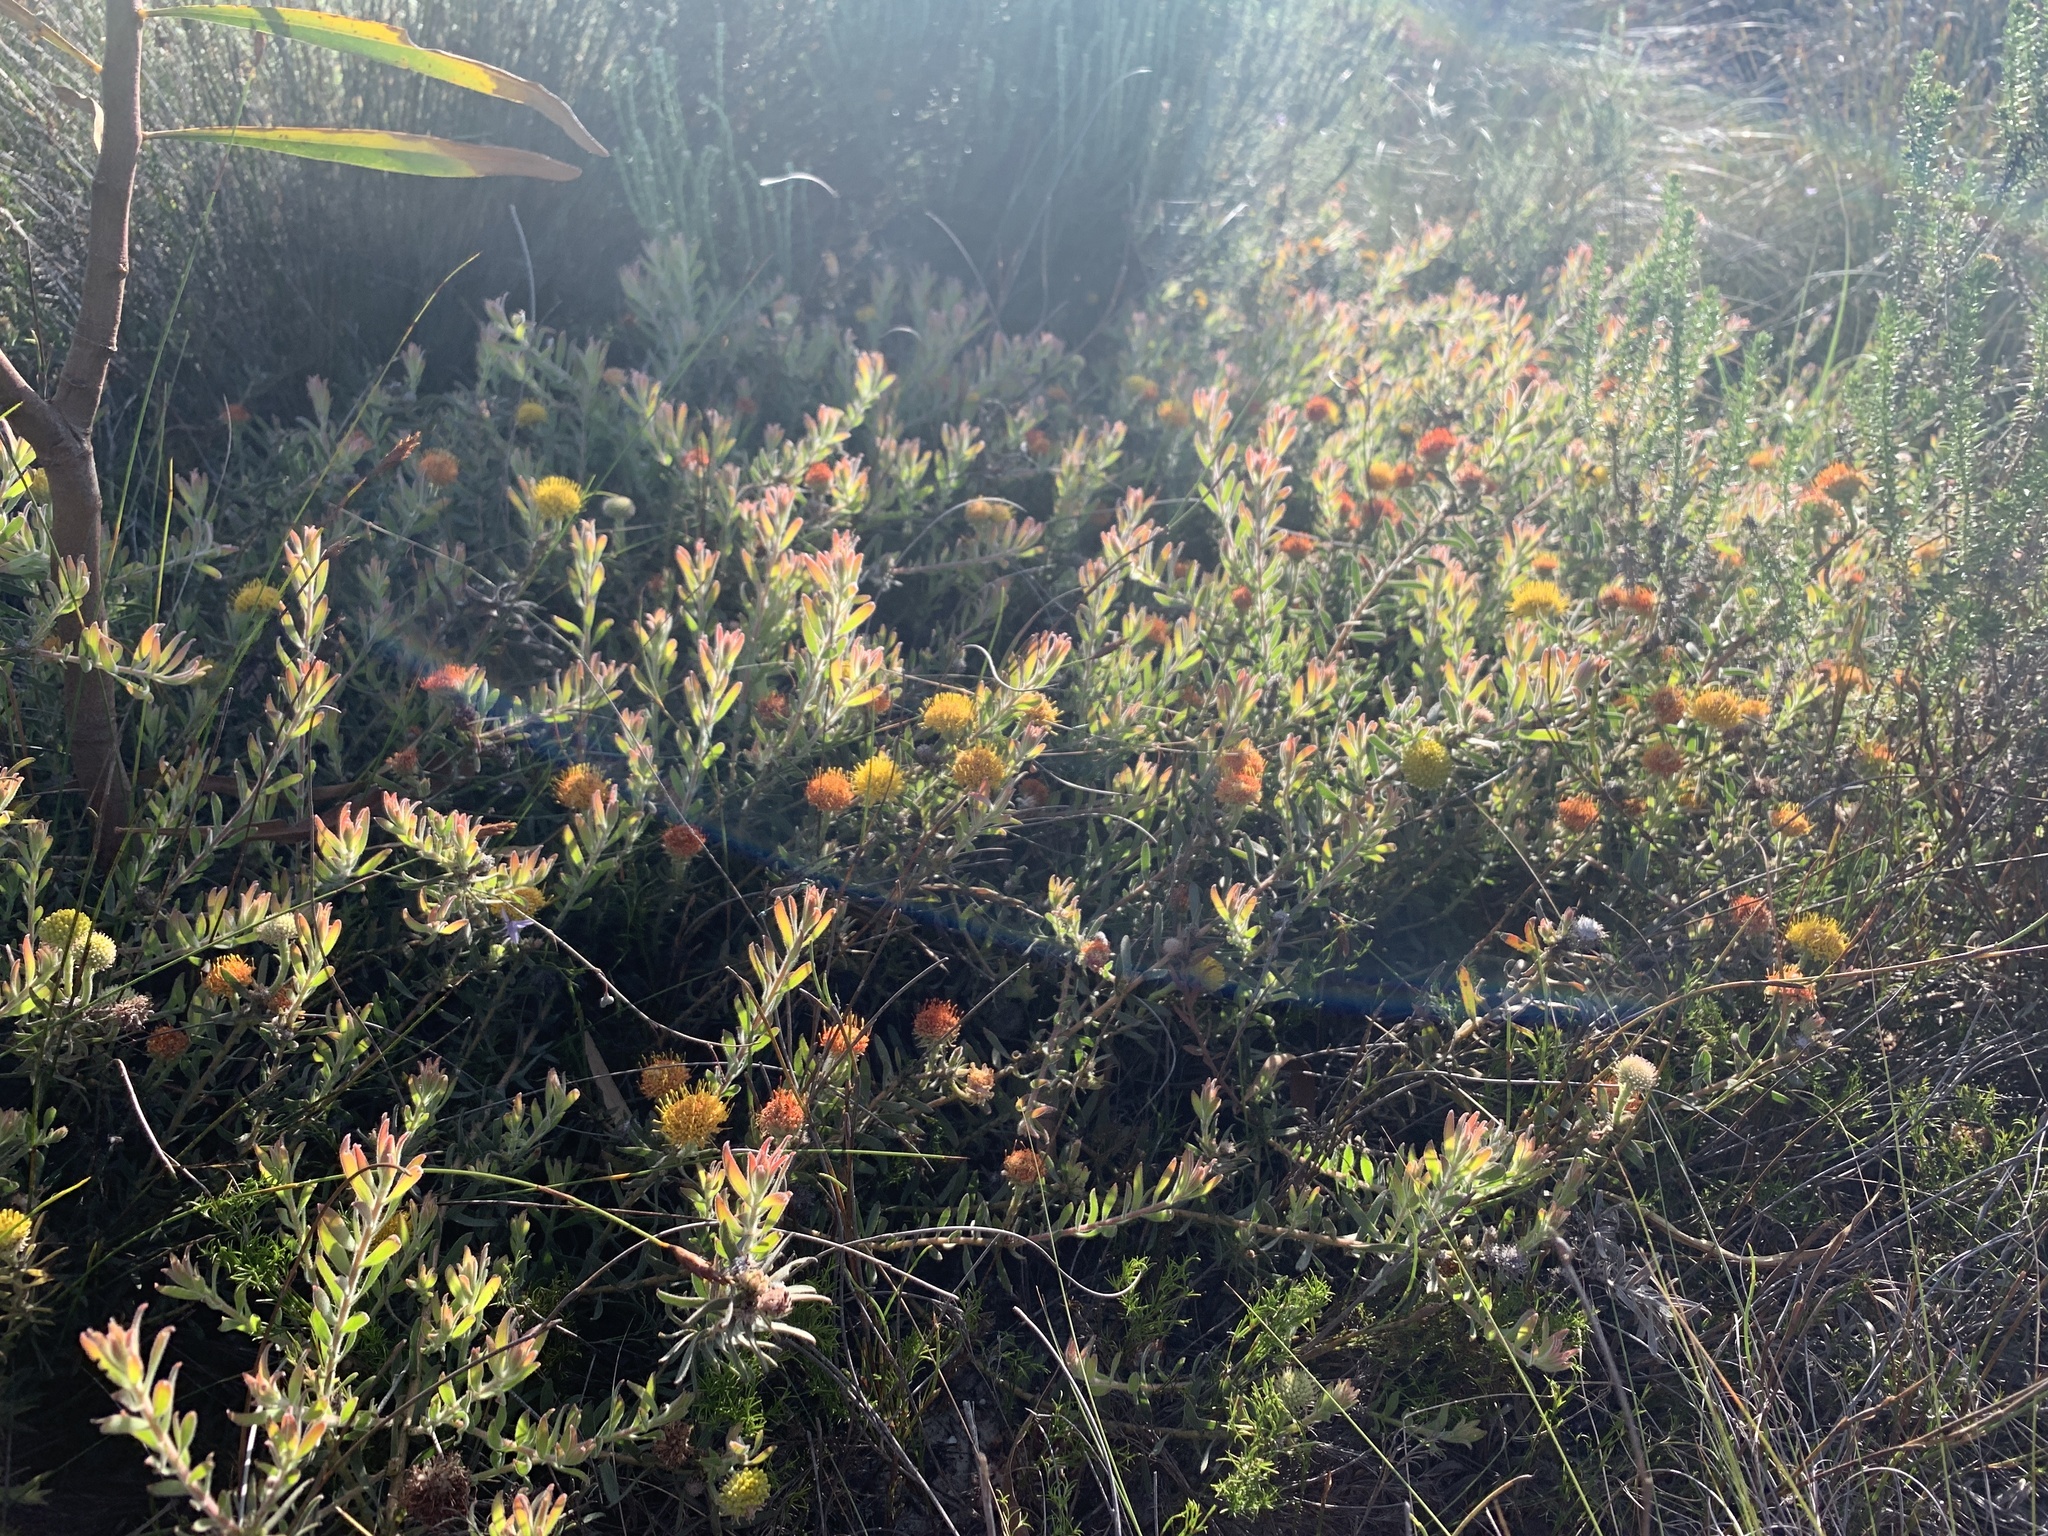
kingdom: Plantae
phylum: Tracheophyta
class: Magnoliopsida
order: Proteales
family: Proteaceae
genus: Leucospermum
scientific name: Leucospermum prostratum
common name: Yellow-trailing pincushion
